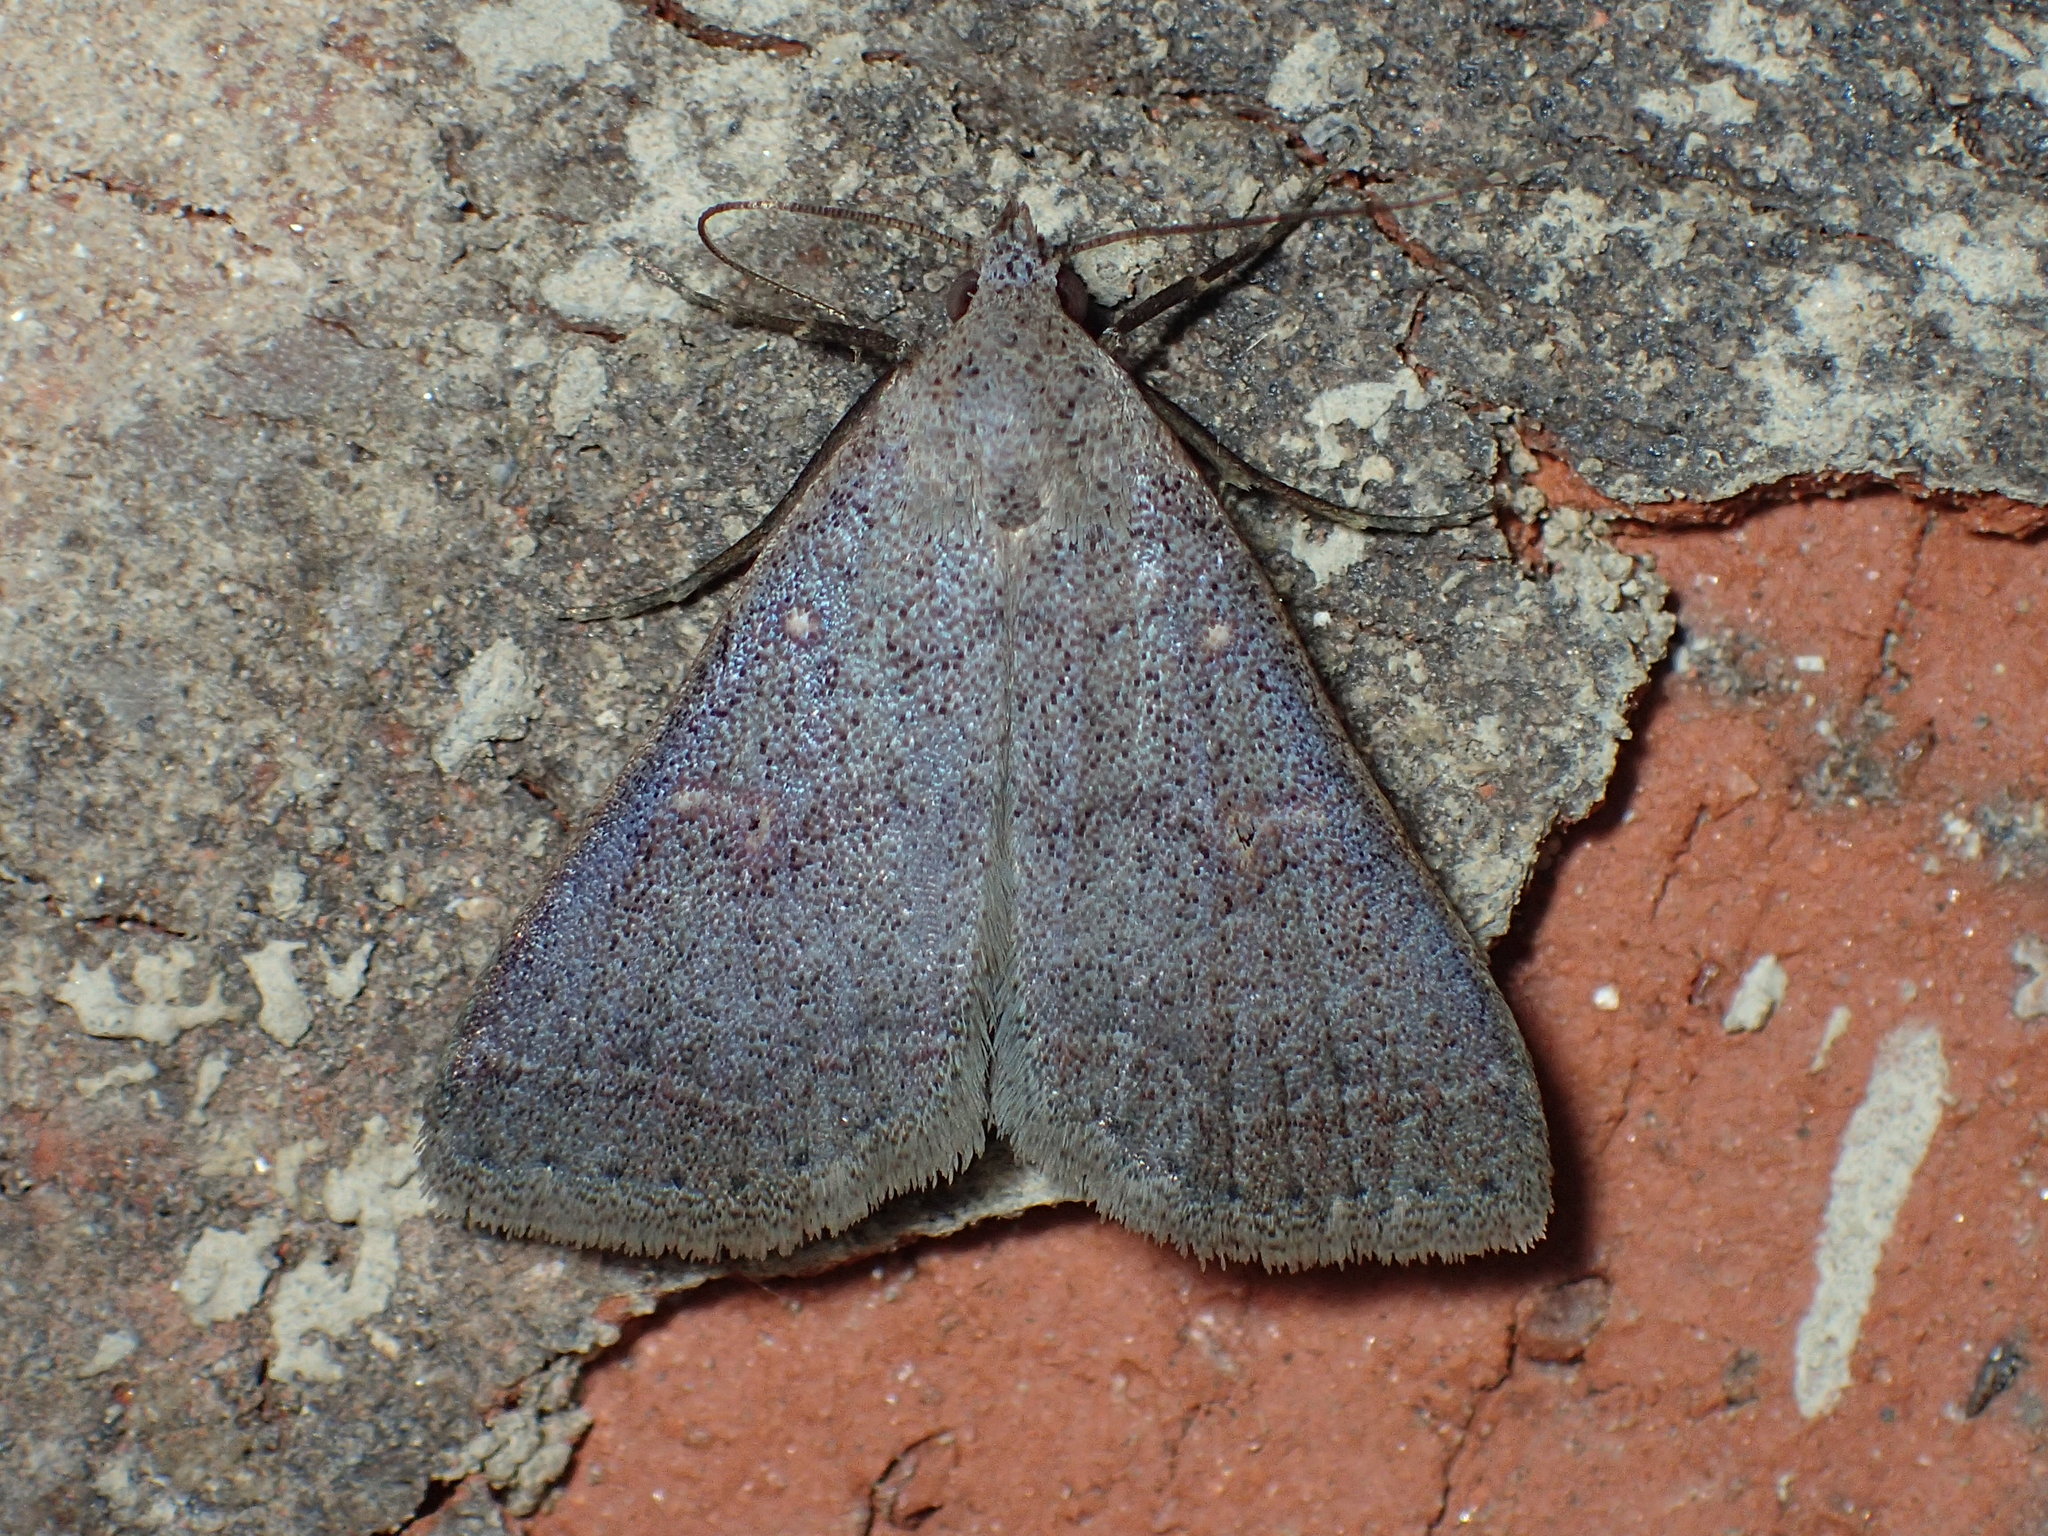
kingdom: Animalia
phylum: Arthropoda
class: Insecta
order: Lepidoptera
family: Erebidae
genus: Renia
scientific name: Renia sobrialis
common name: Sober renia moth
